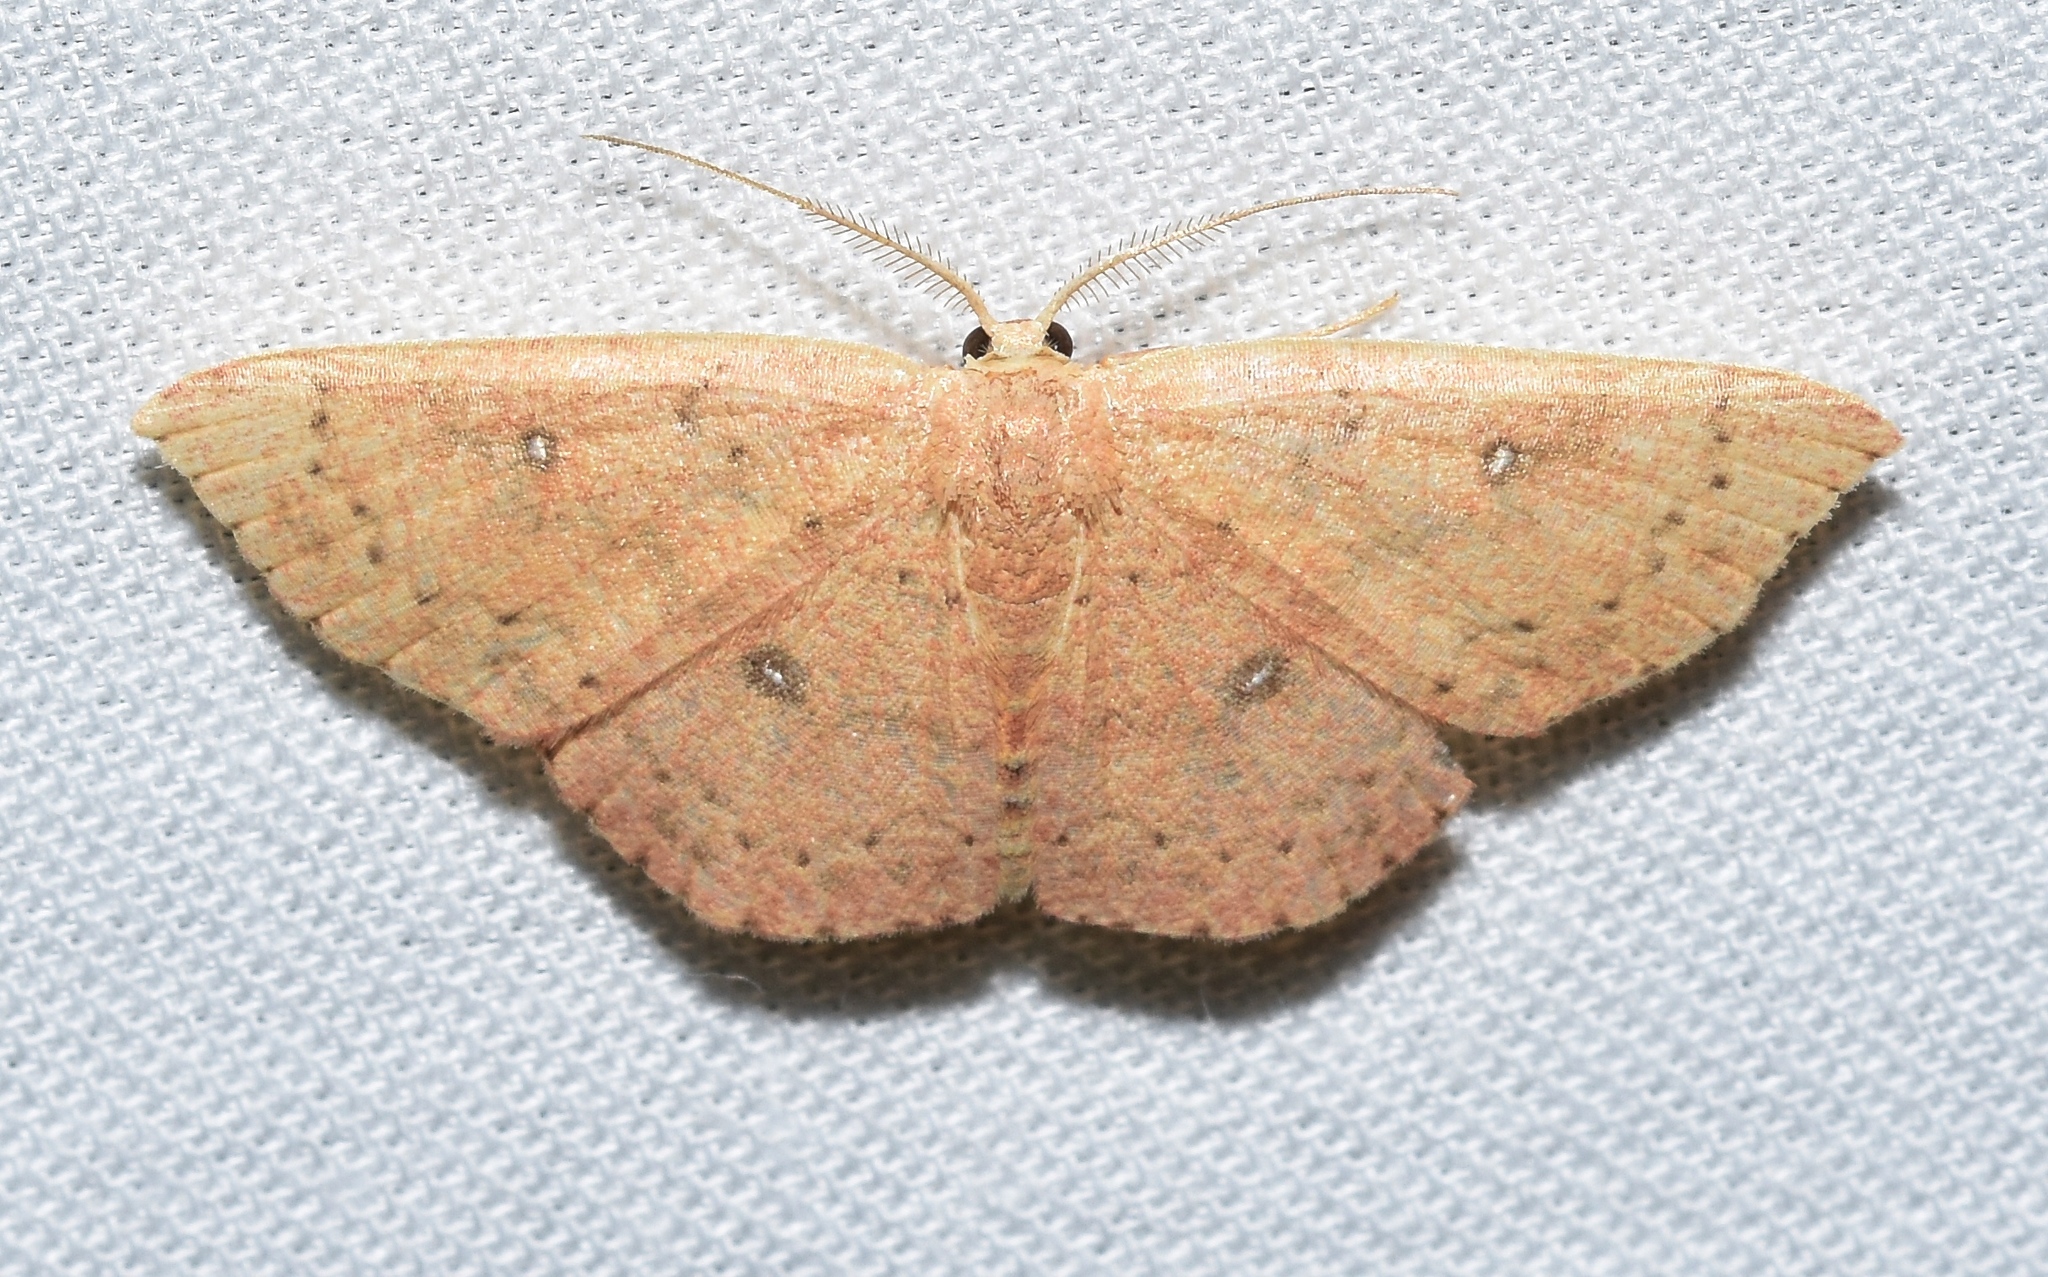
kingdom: Animalia
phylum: Arthropoda
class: Insecta
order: Lepidoptera
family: Geometridae
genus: Cyclophora
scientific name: Cyclophora packardi
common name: Packard's wave
